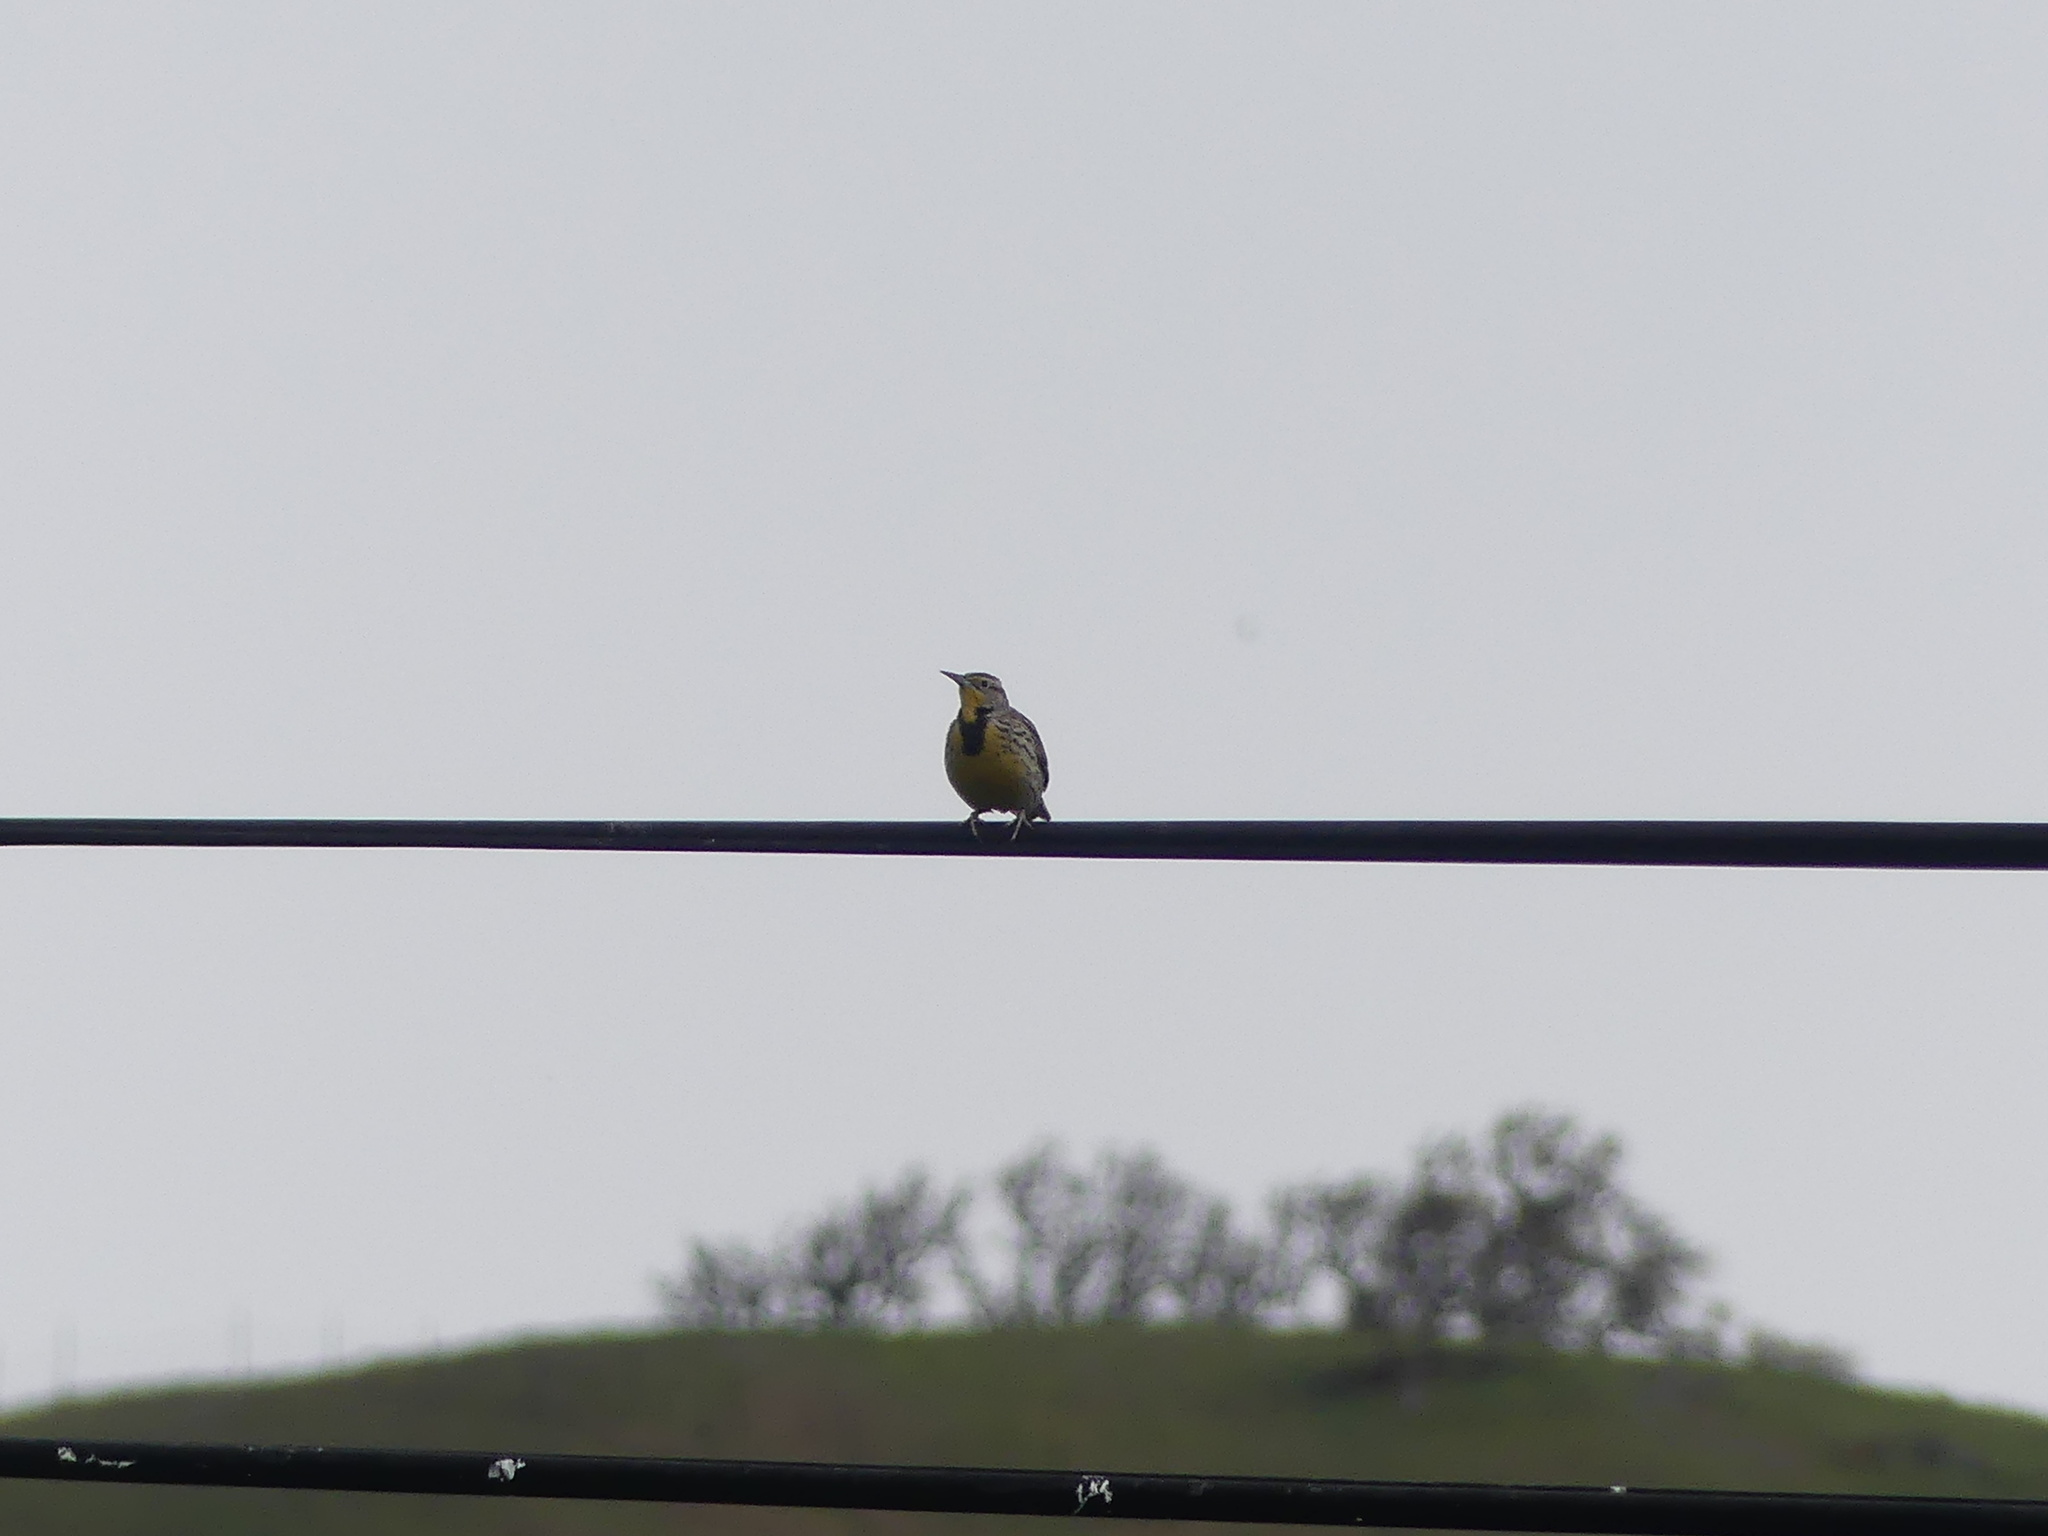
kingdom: Animalia
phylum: Chordata
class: Aves
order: Passeriformes
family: Icteridae
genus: Sturnella
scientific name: Sturnella neglecta
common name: Western meadowlark
